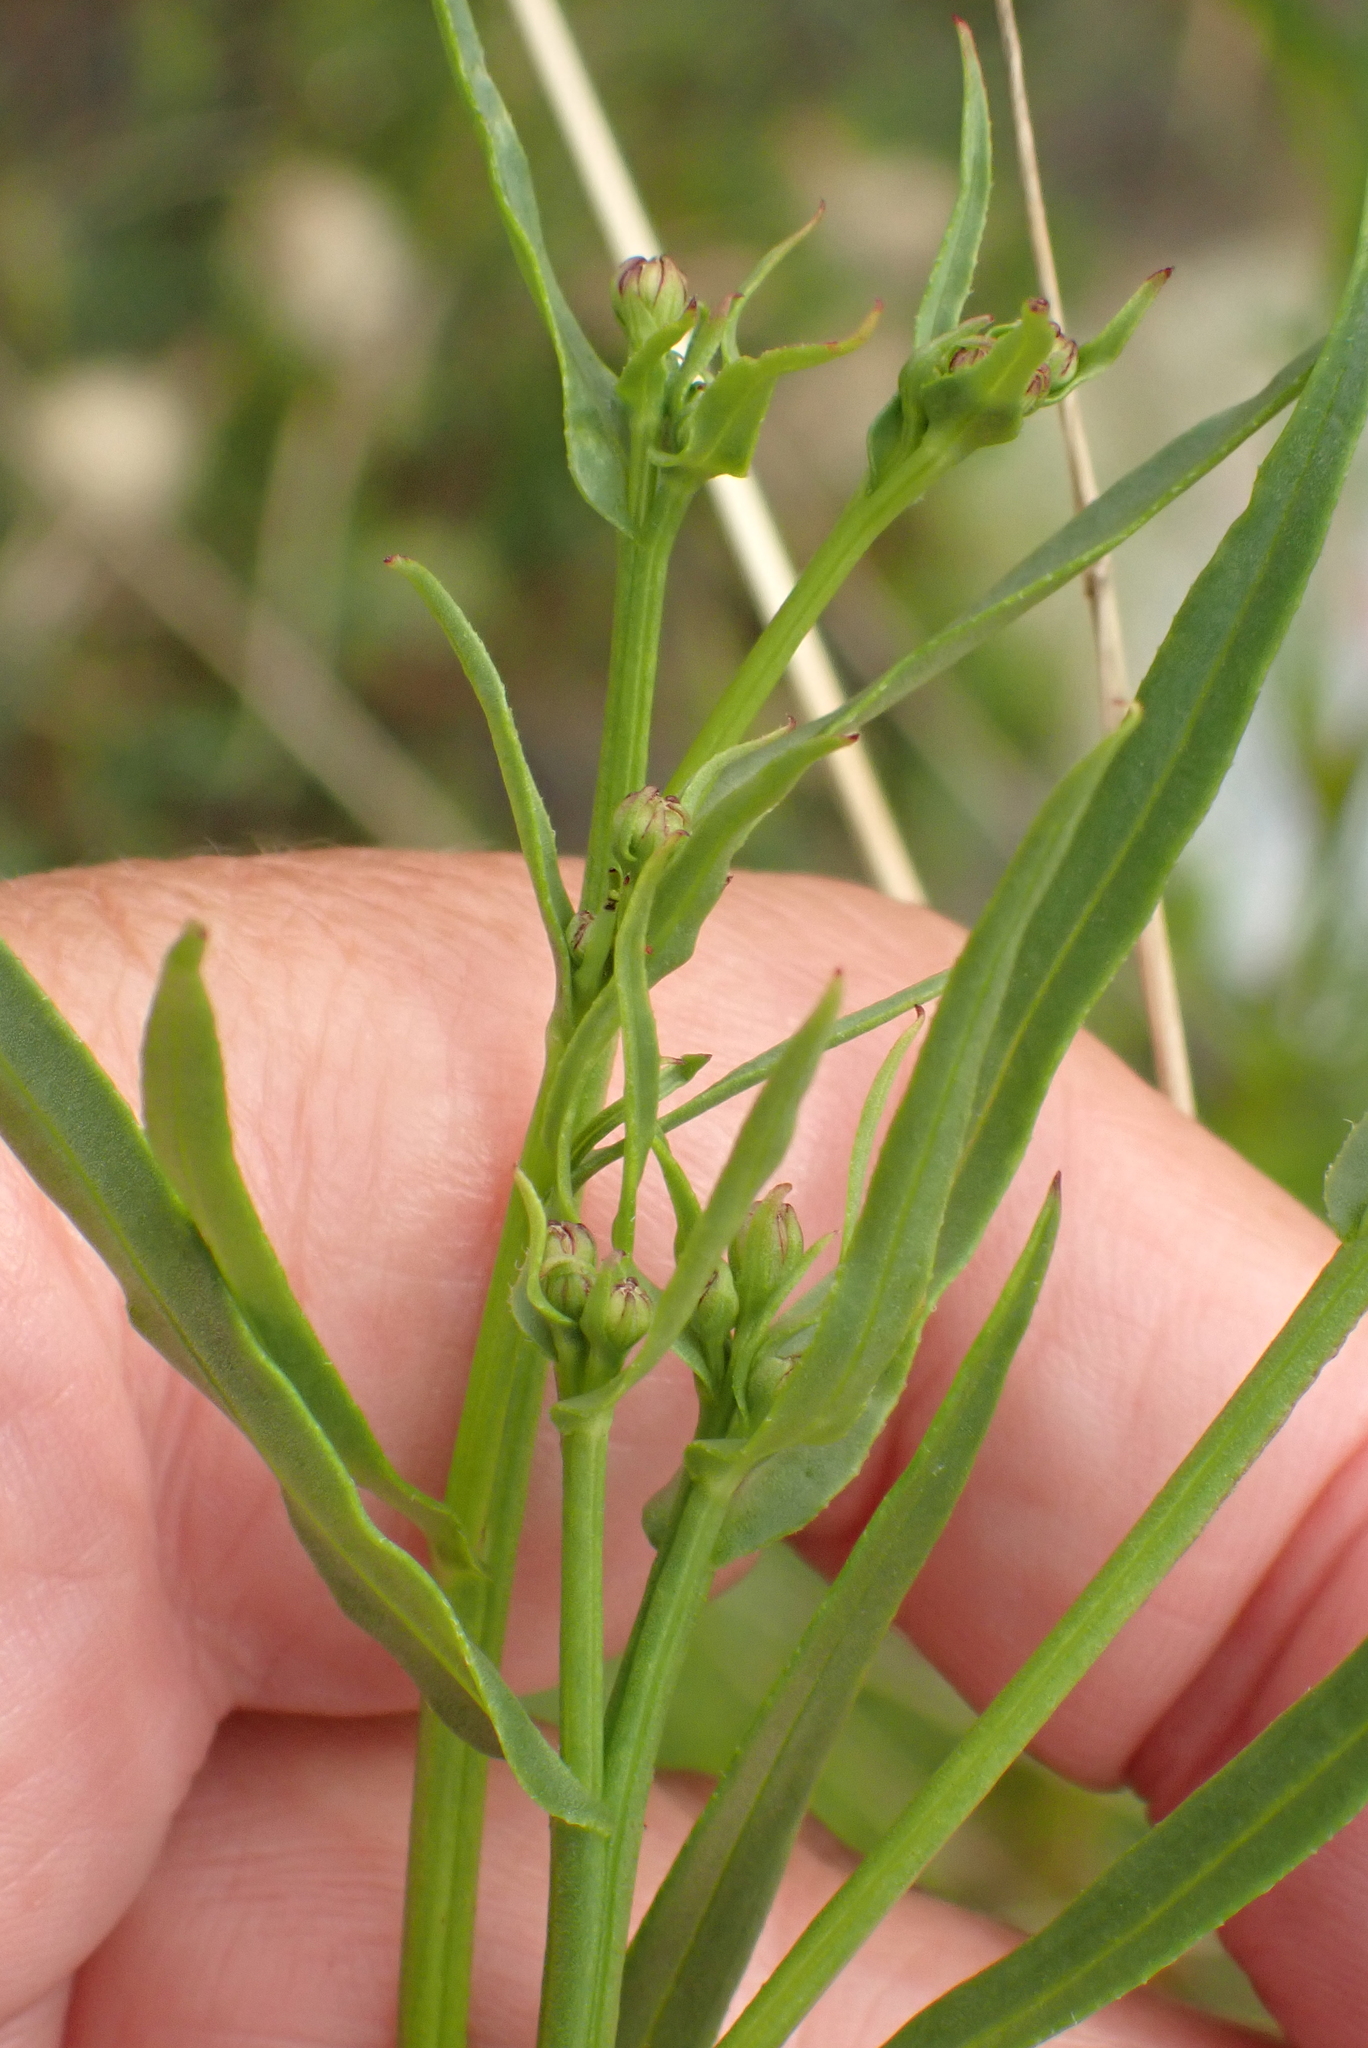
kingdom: Plantae
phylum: Tracheophyta
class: Magnoliopsida
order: Asterales
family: Asteraceae
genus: Tripolium
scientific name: Tripolium pannonicum
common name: Sea aster
